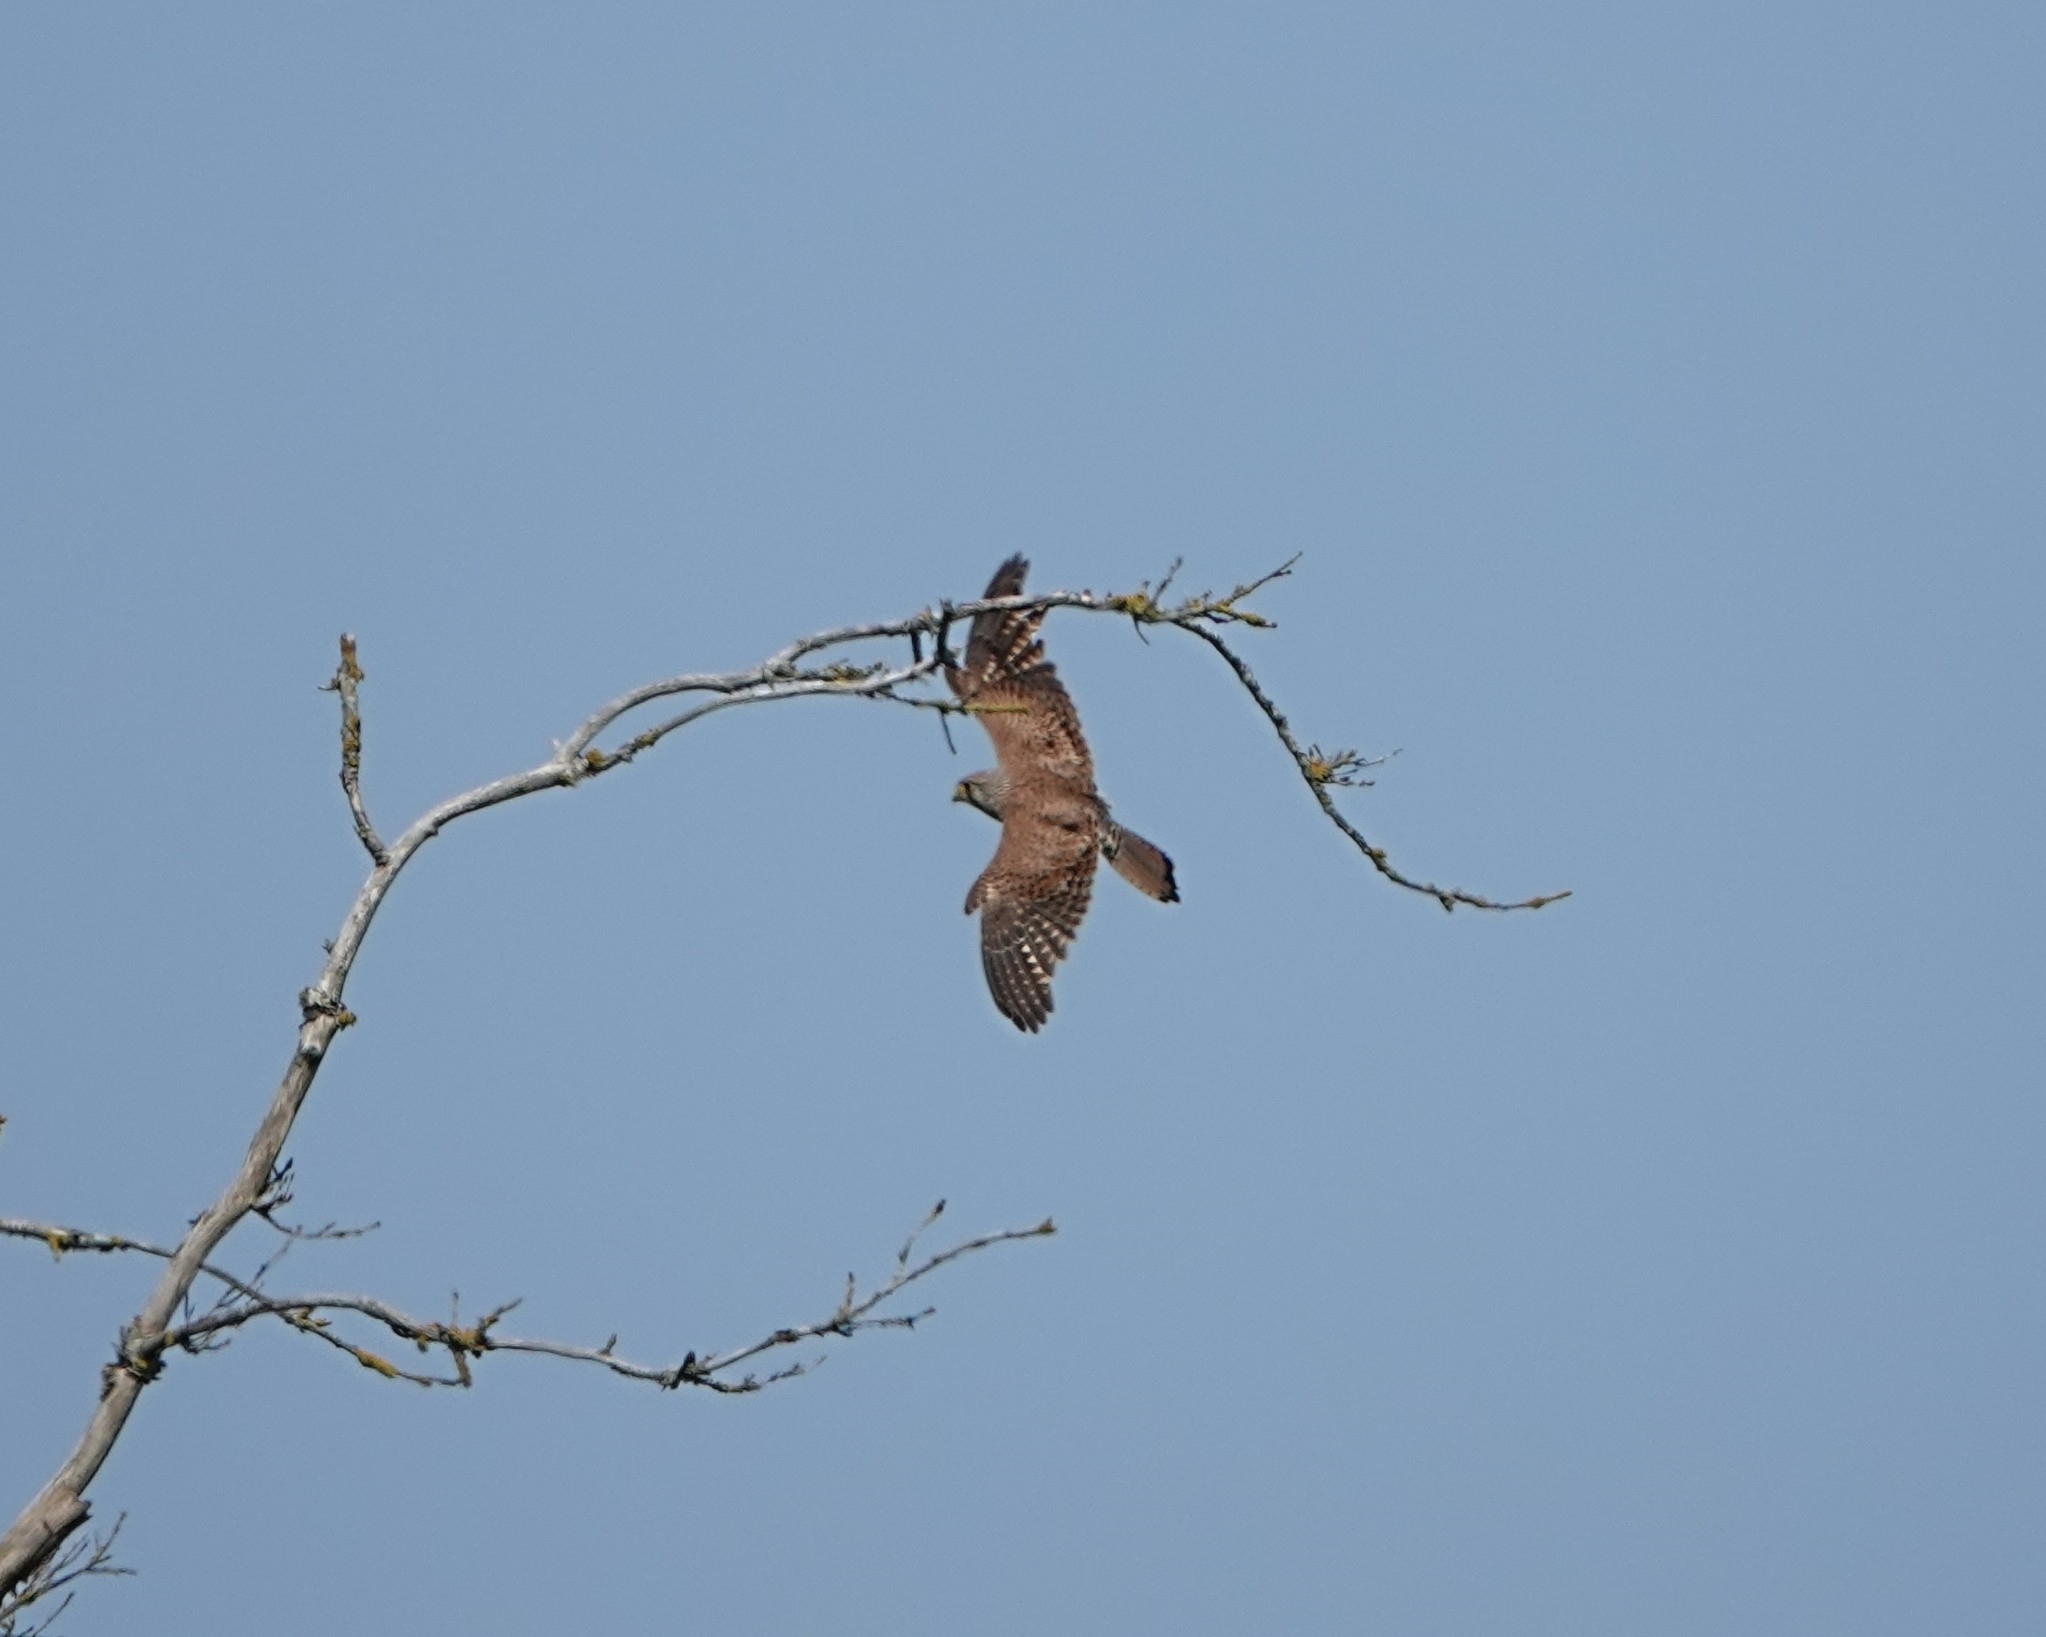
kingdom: Animalia
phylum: Chordata
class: Aves
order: Falconiformes
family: Falconidae
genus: Falco
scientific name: Falco tinnunculus
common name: Common kestrel
